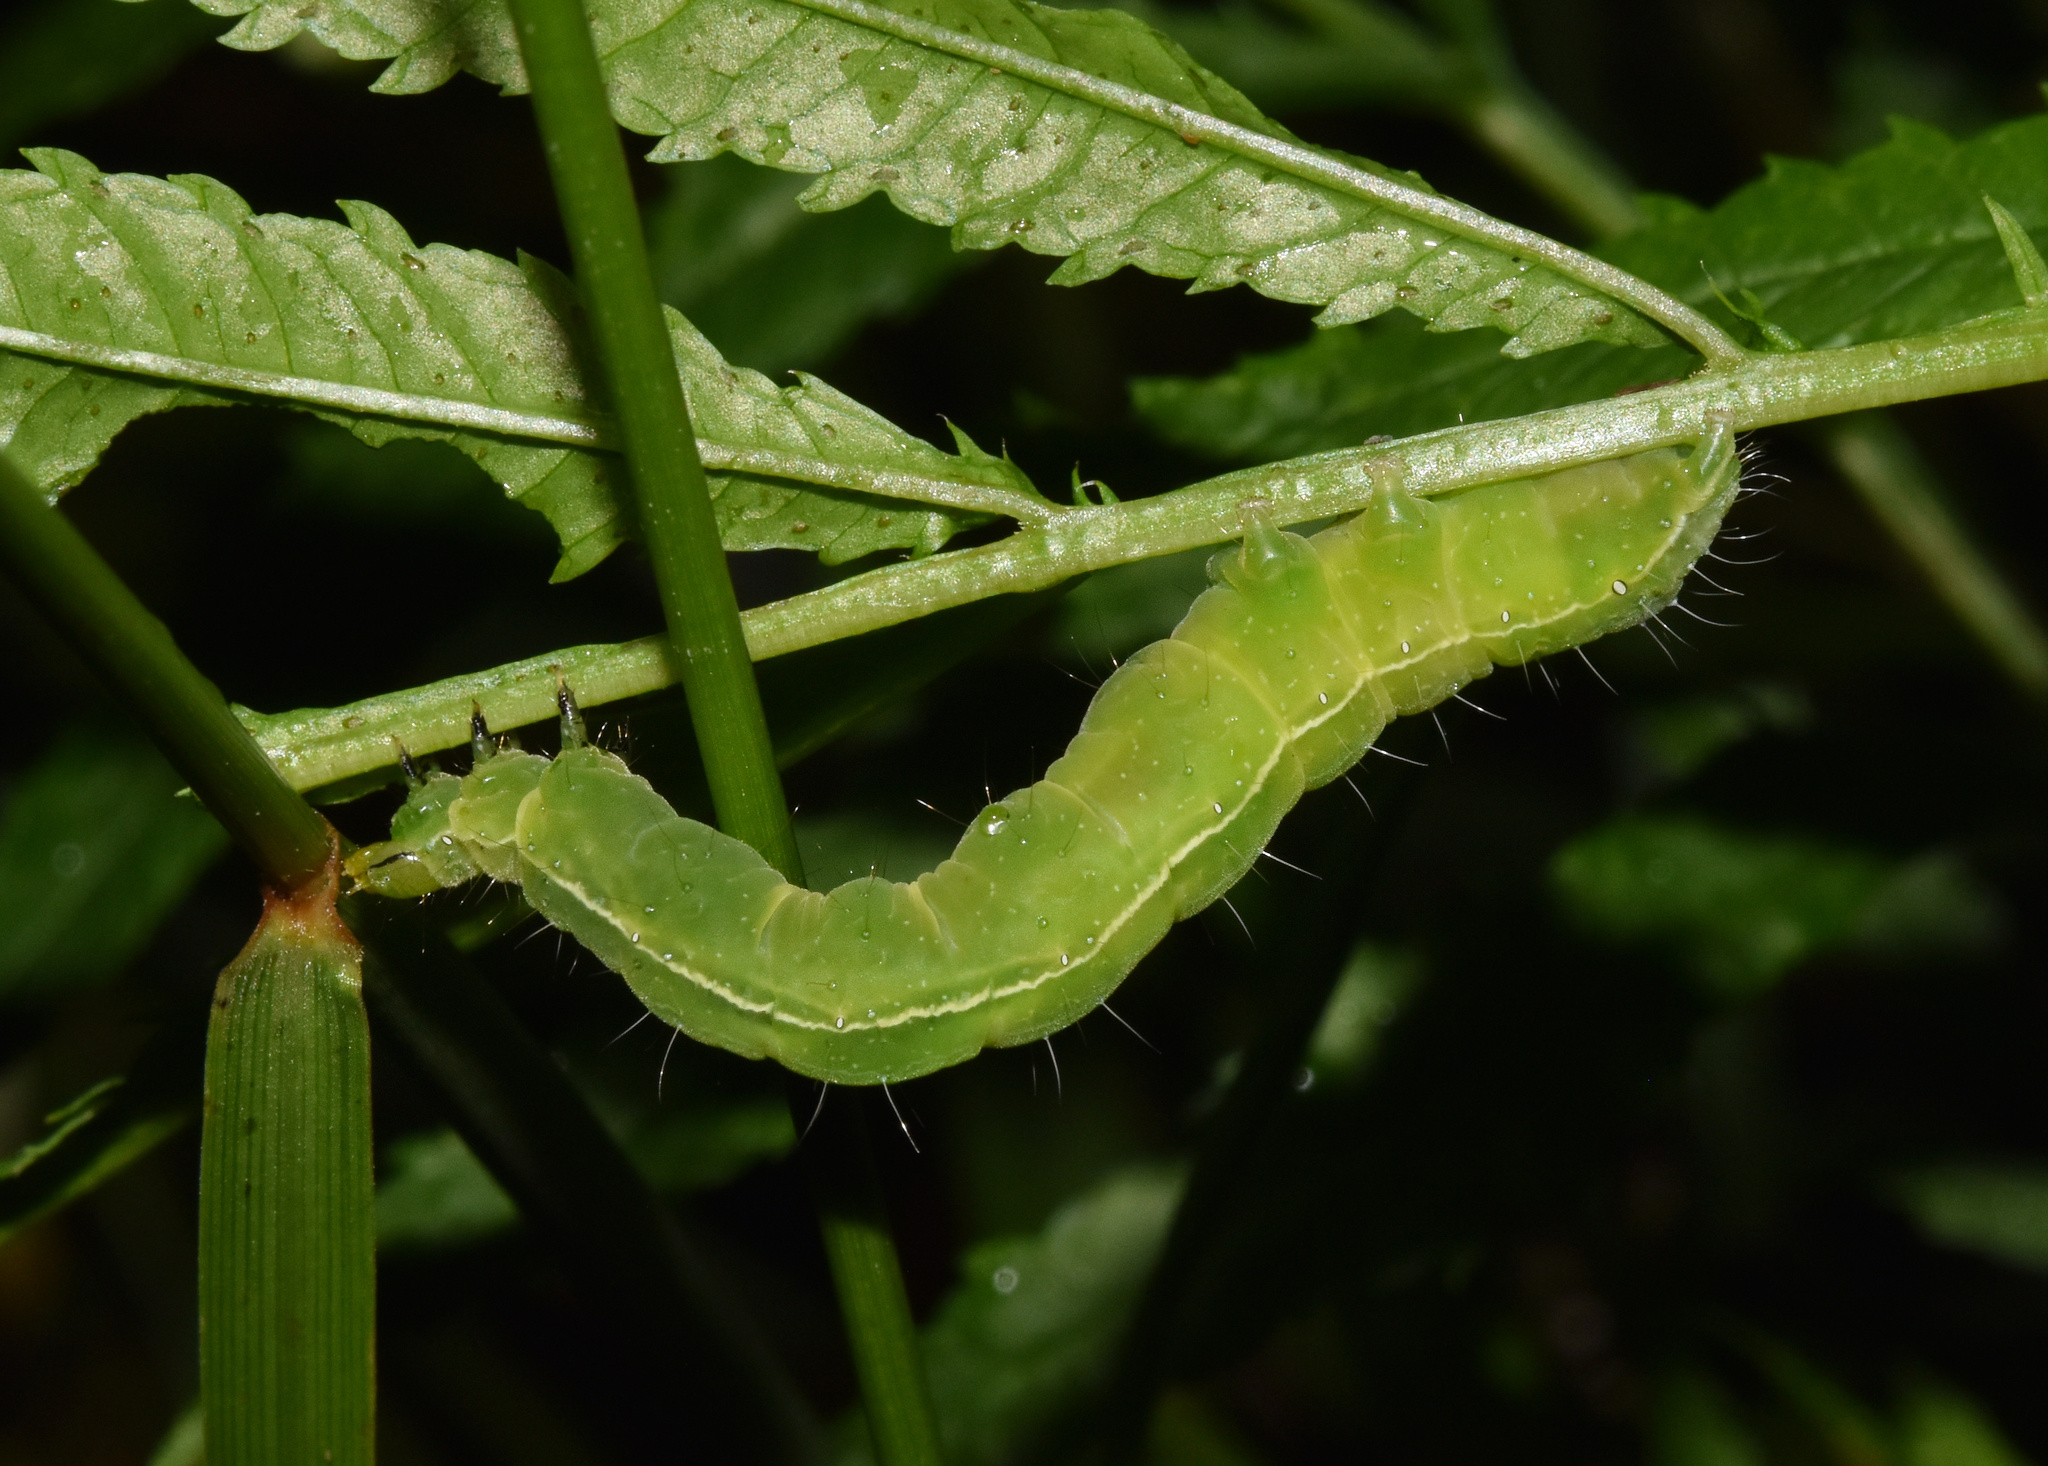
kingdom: Animalia
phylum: Arthropoda
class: Insecta
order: Lepidoptera
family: Noctuidae
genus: Thysanoplusia
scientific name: Thysanoplusia orichalcea
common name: Slender burnished brass, golden plusia
